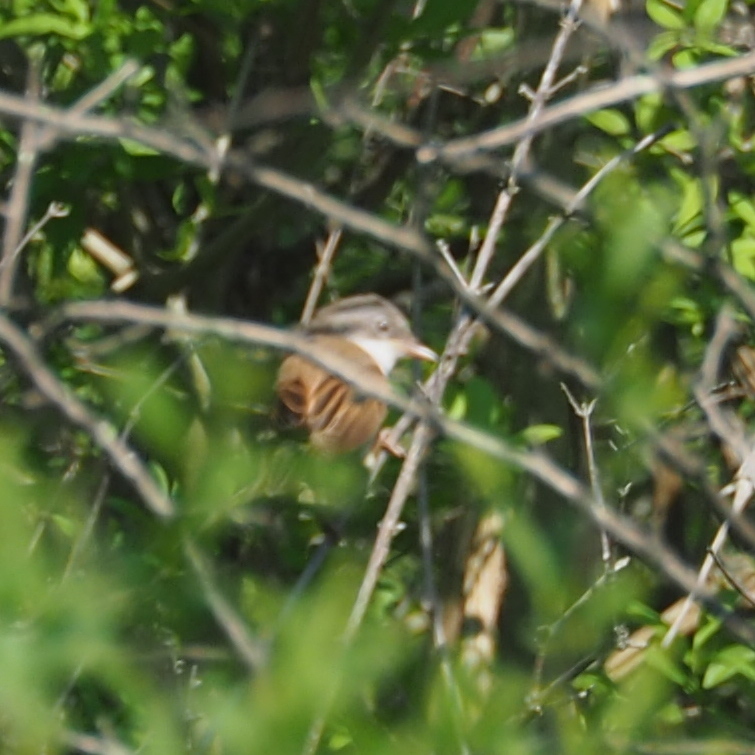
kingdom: Animalia
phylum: Chordata
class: Aves
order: Passeriformes
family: Sylviidae
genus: Sylvia
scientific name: Sylvia communis
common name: Common whitethroat
